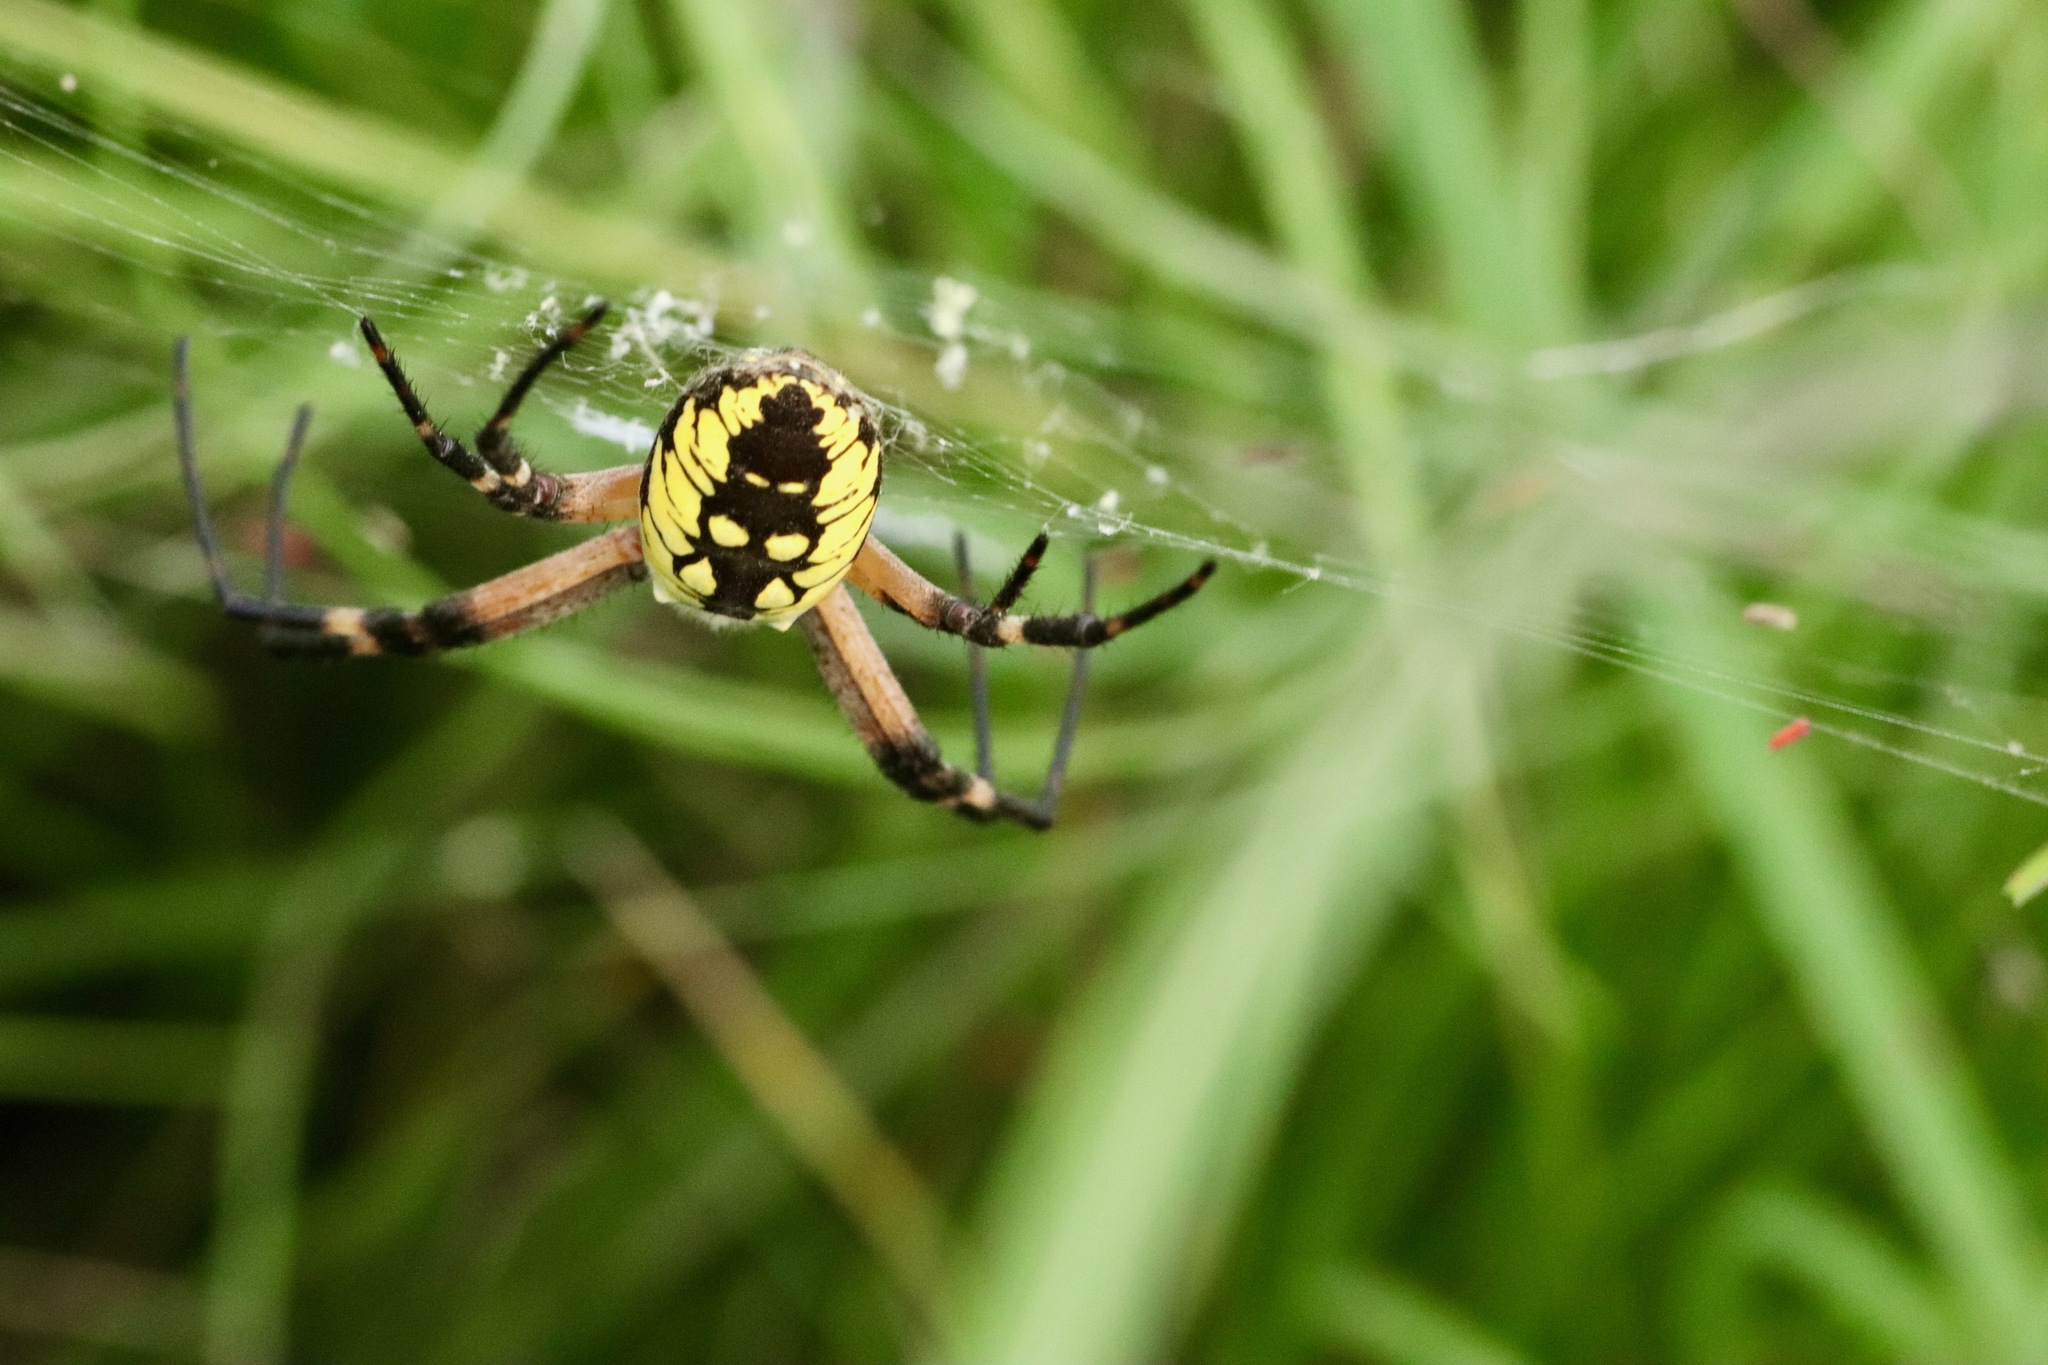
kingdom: Animalia
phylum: Arthropoda
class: Arachnida
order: Araneae
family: Araneidae
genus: Argiope
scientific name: Argiope aurantia
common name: Orb weavers
